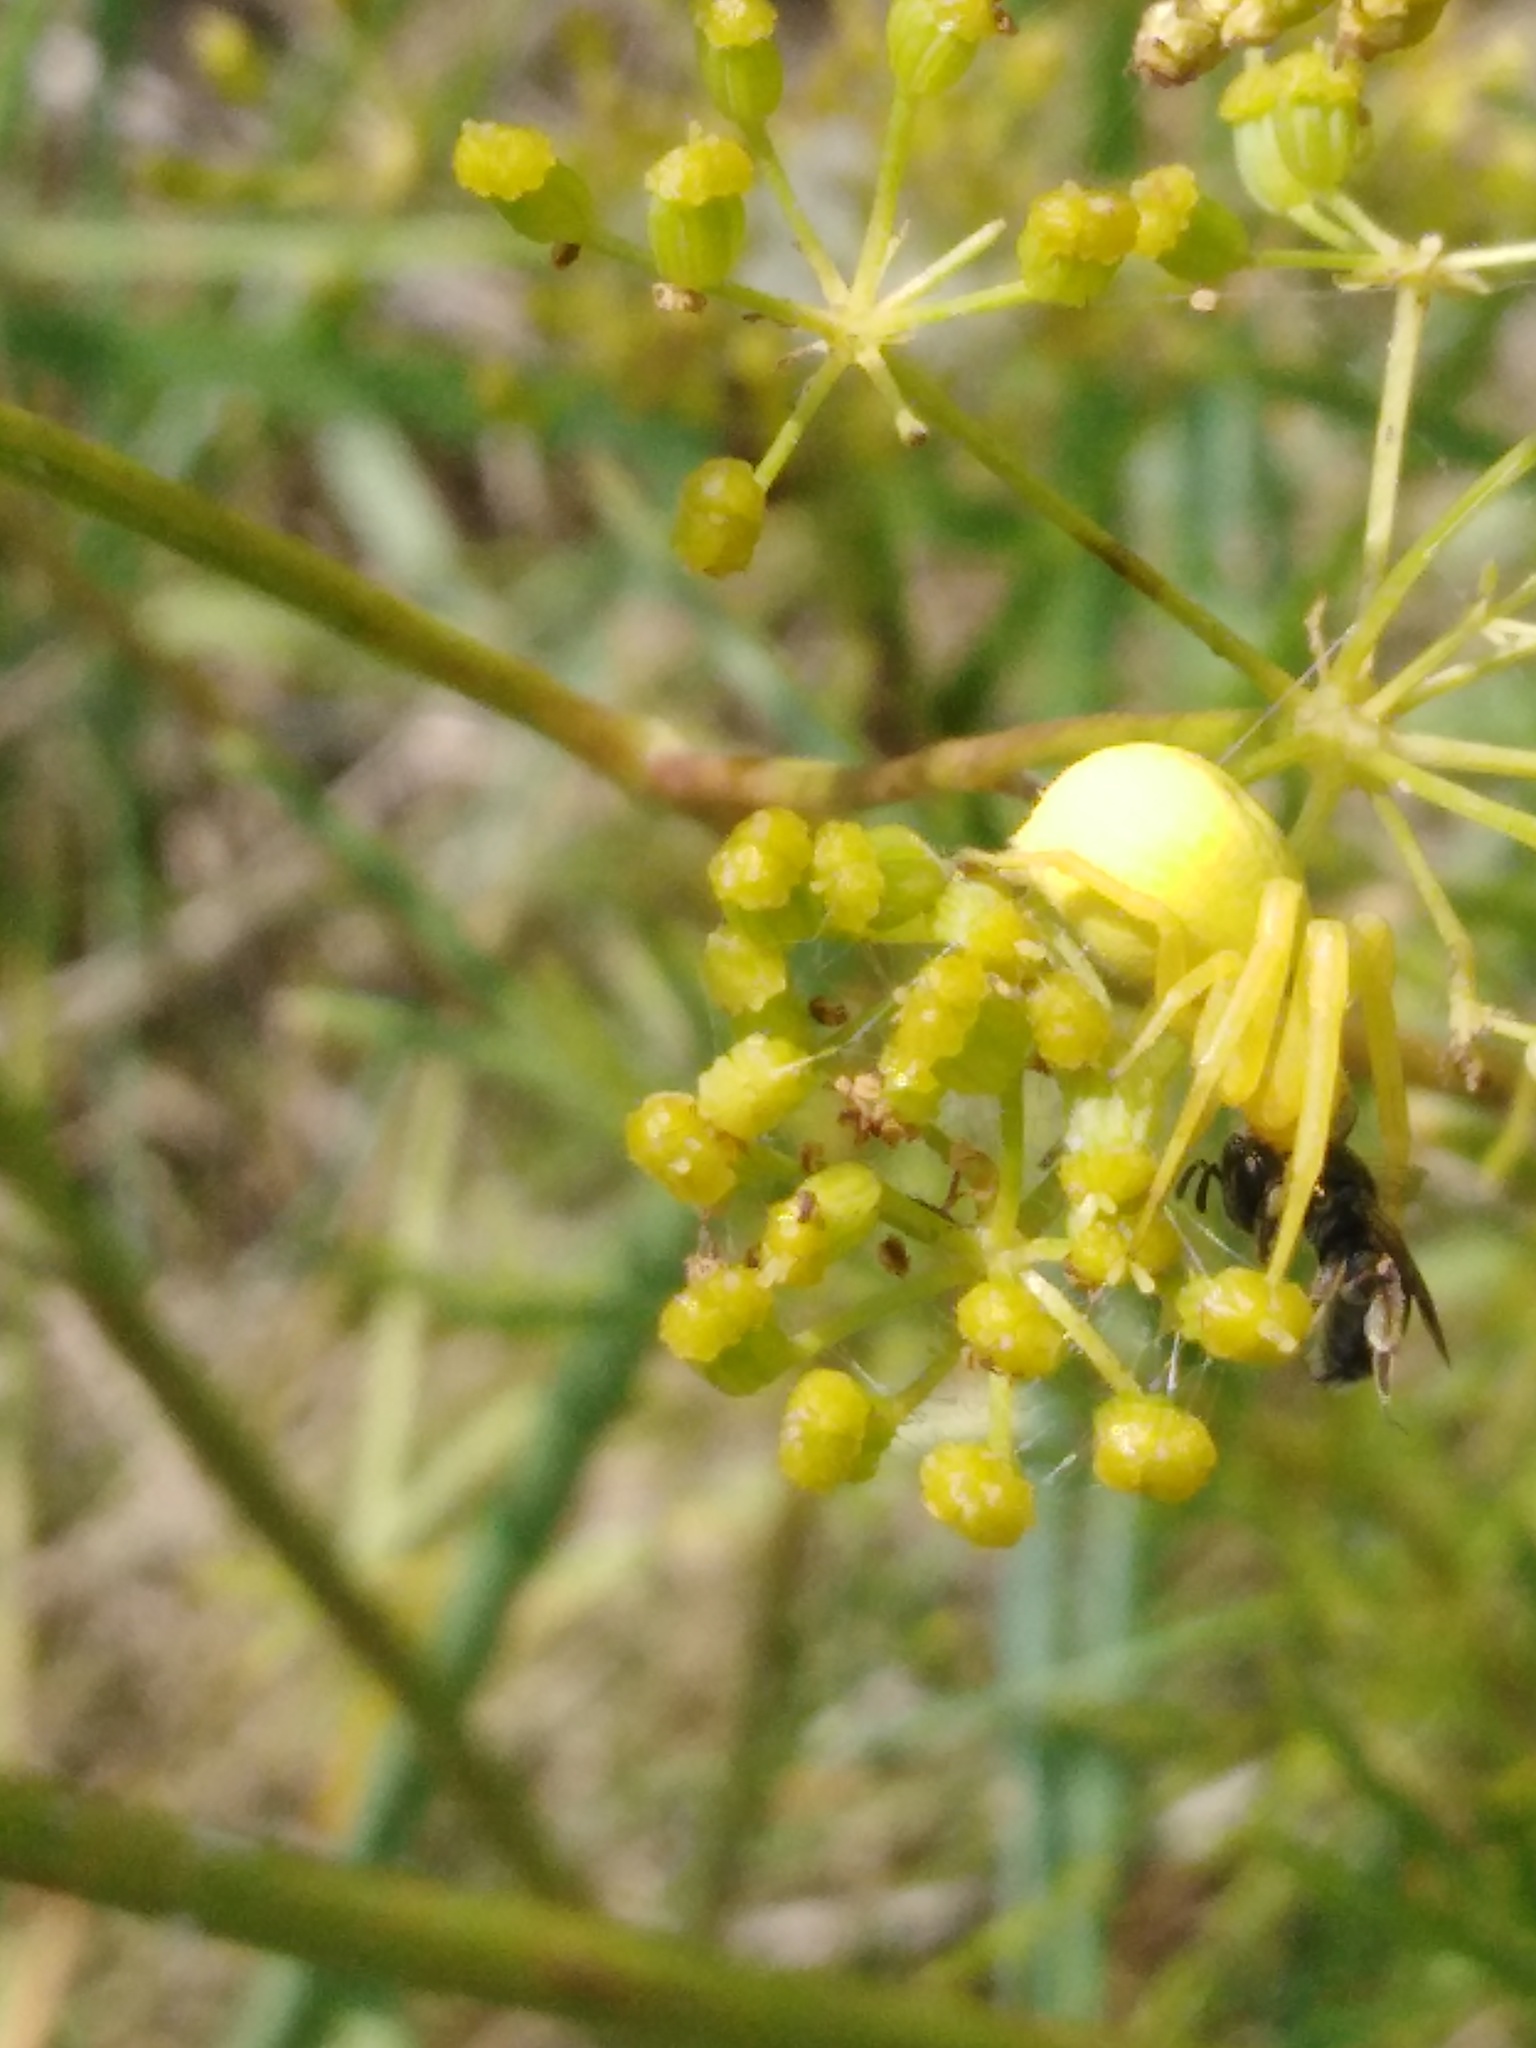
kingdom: Plantae
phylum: Tracheophyta
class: Magnoliopsida
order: Apiales
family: Apiaceae
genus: Silaum
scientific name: Silaum silaus
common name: Pepper-saxifrage
